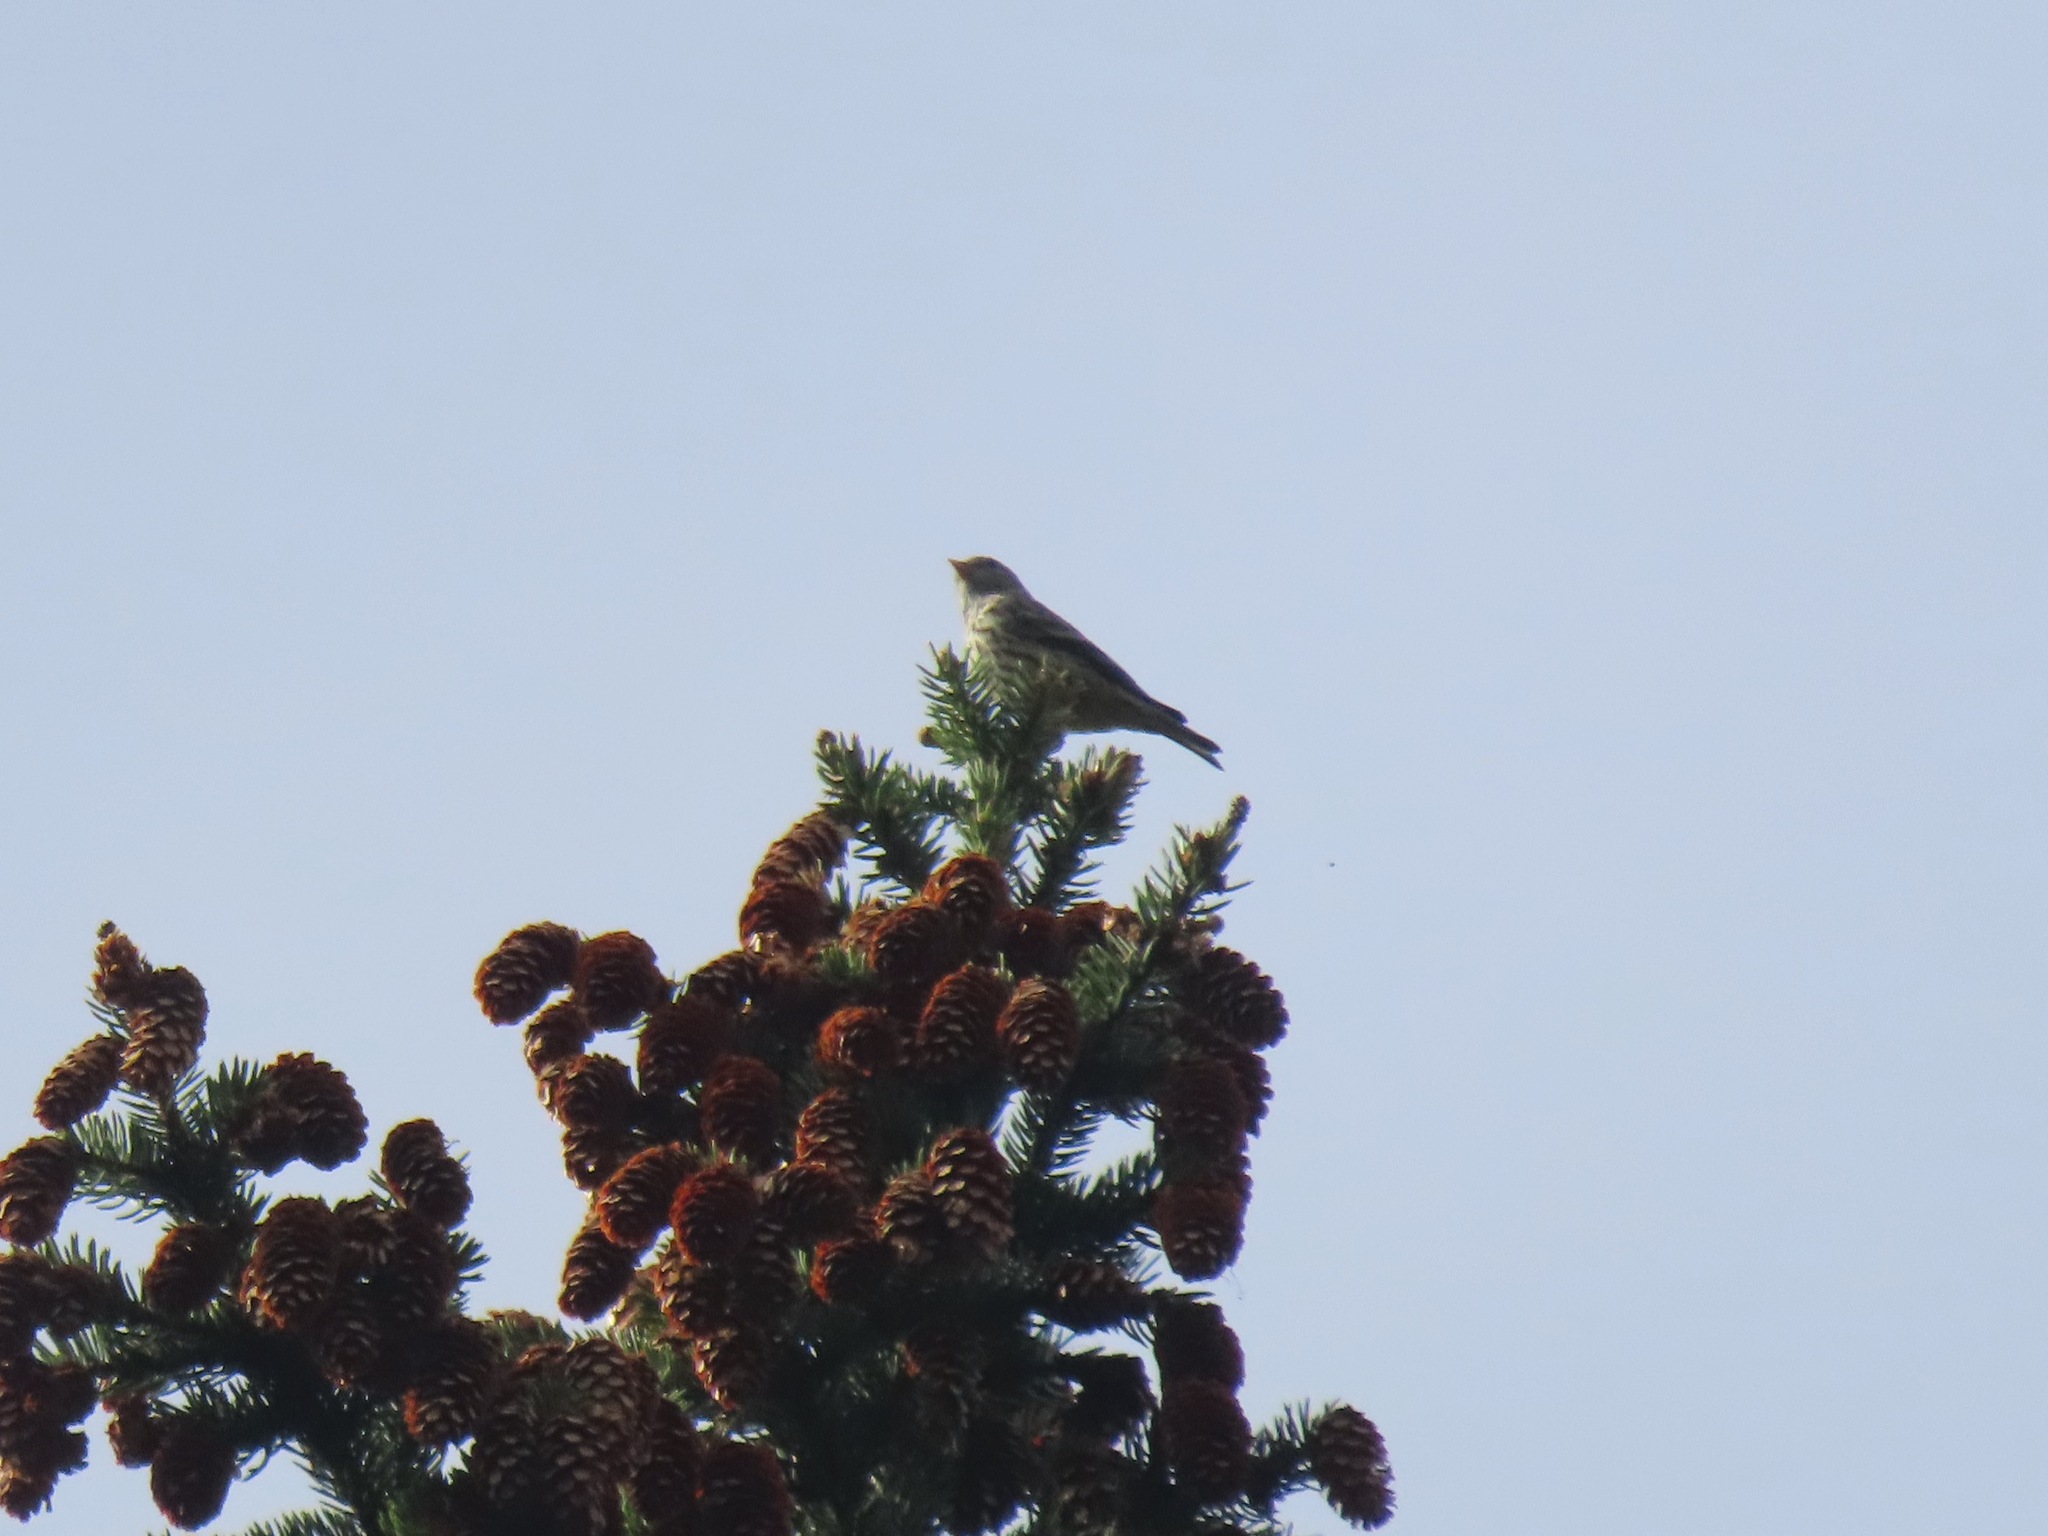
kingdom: Animalia
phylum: Chordata
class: Aves
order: Passeriformes
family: Fringillidae
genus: Spinus
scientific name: Spinus pinus
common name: Pine siskin
